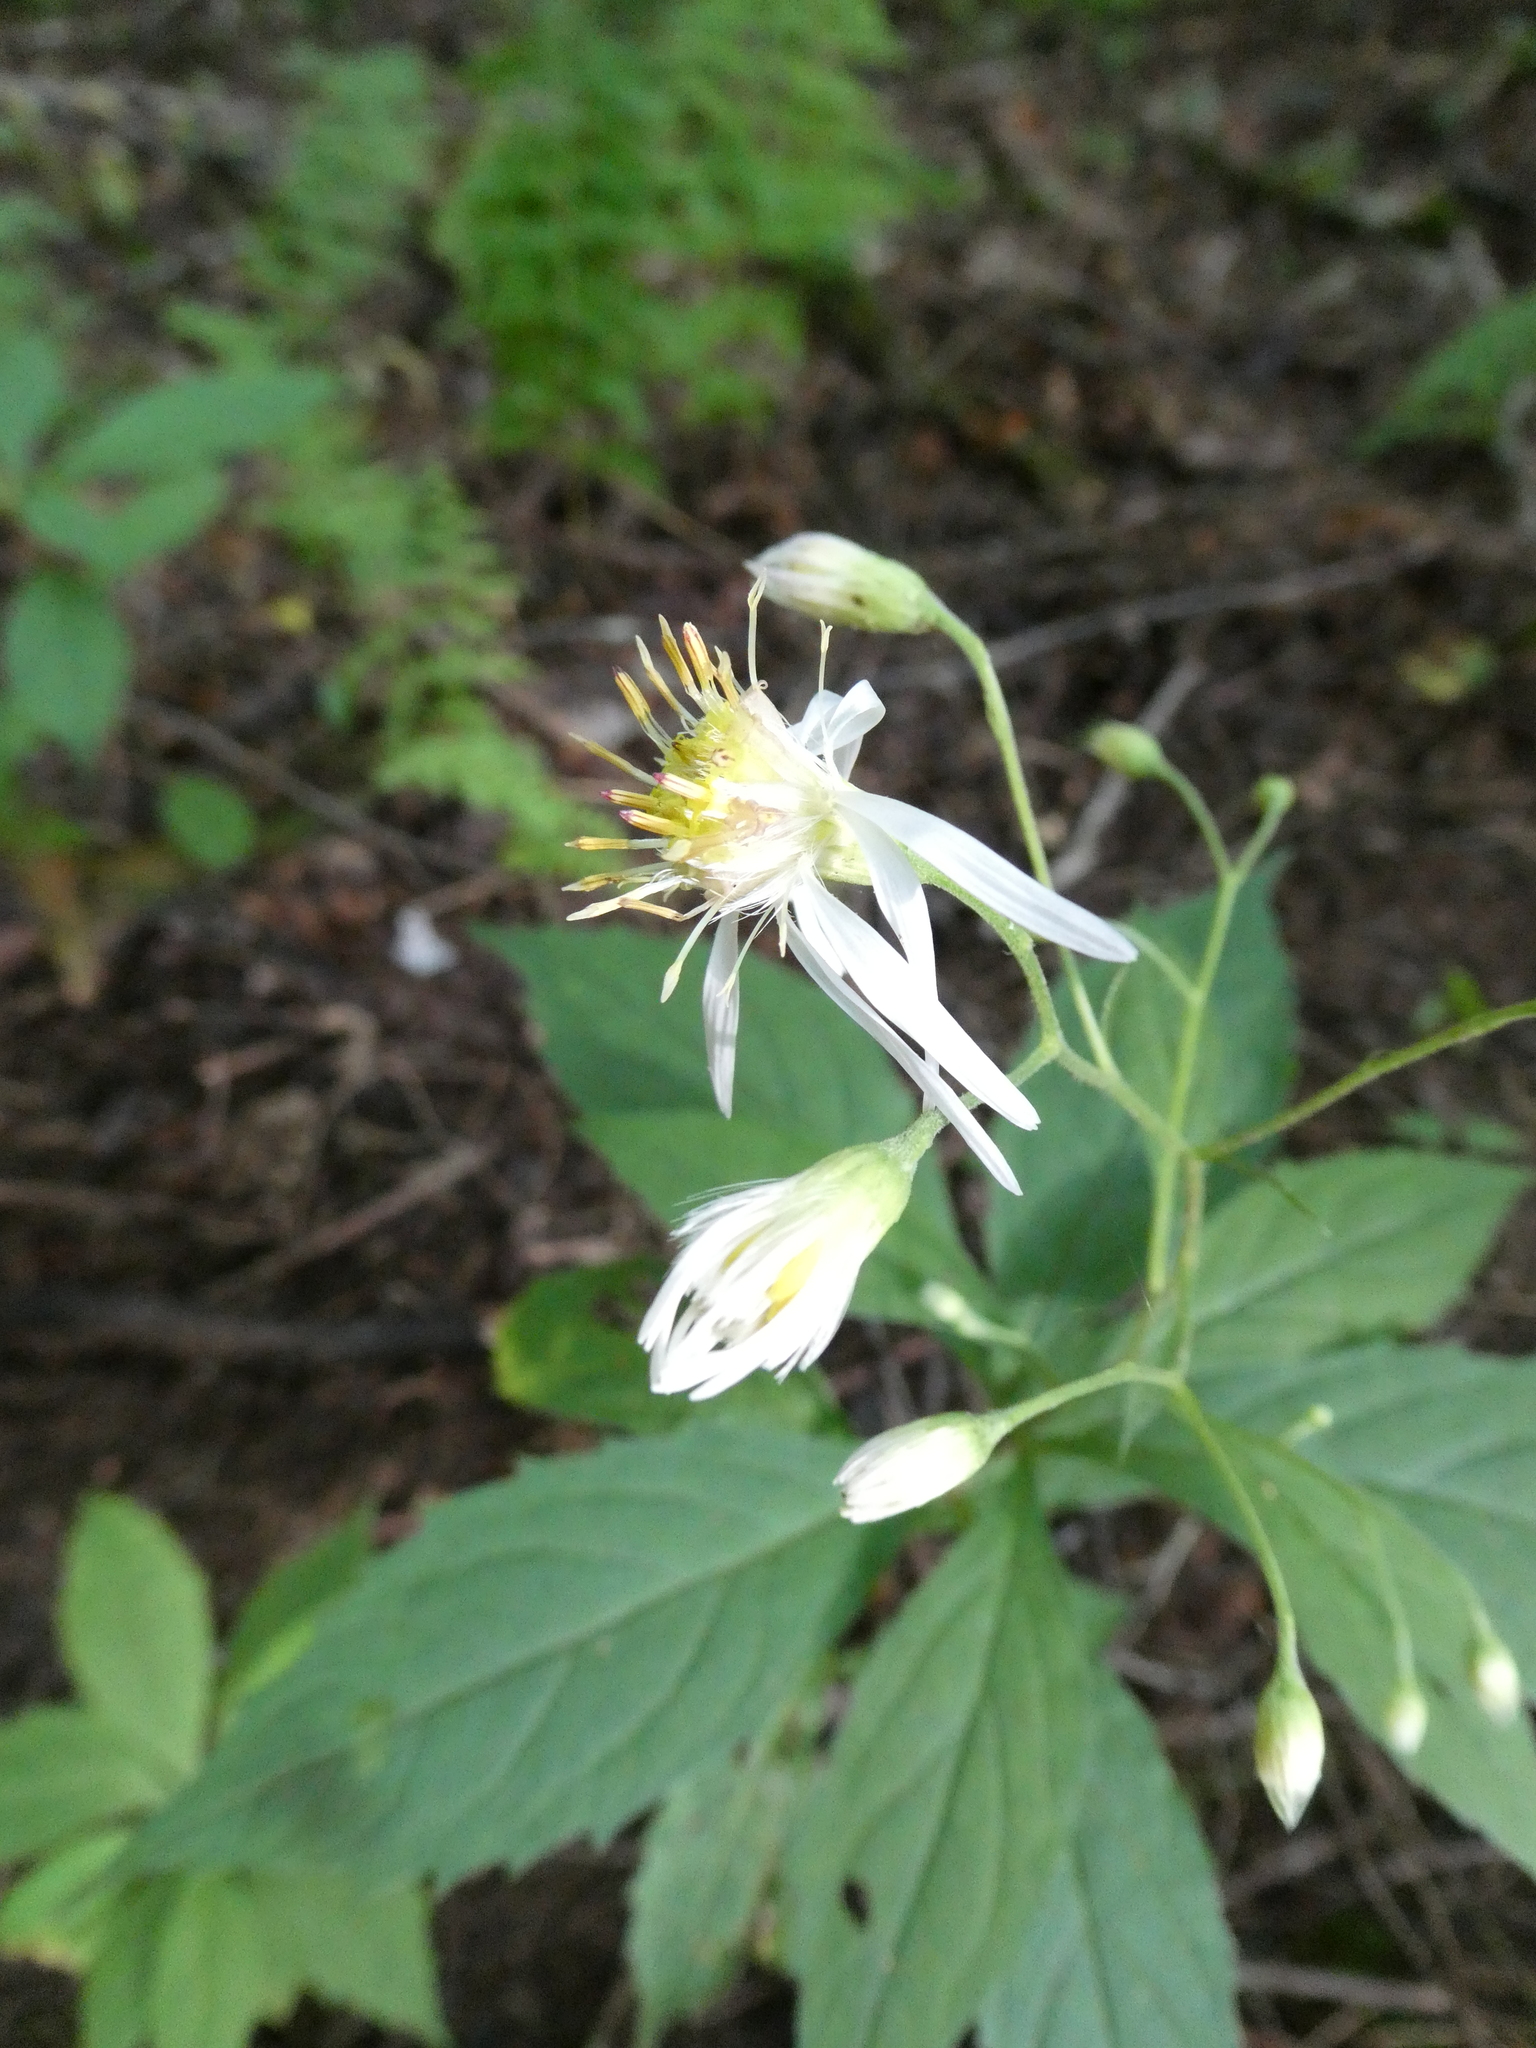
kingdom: Plantae
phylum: Tracheophyta
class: Magnoliopsida
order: Asterales
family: Asteraceae
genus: Oclemena
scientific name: Oclemena acuminata
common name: Mountain aster
